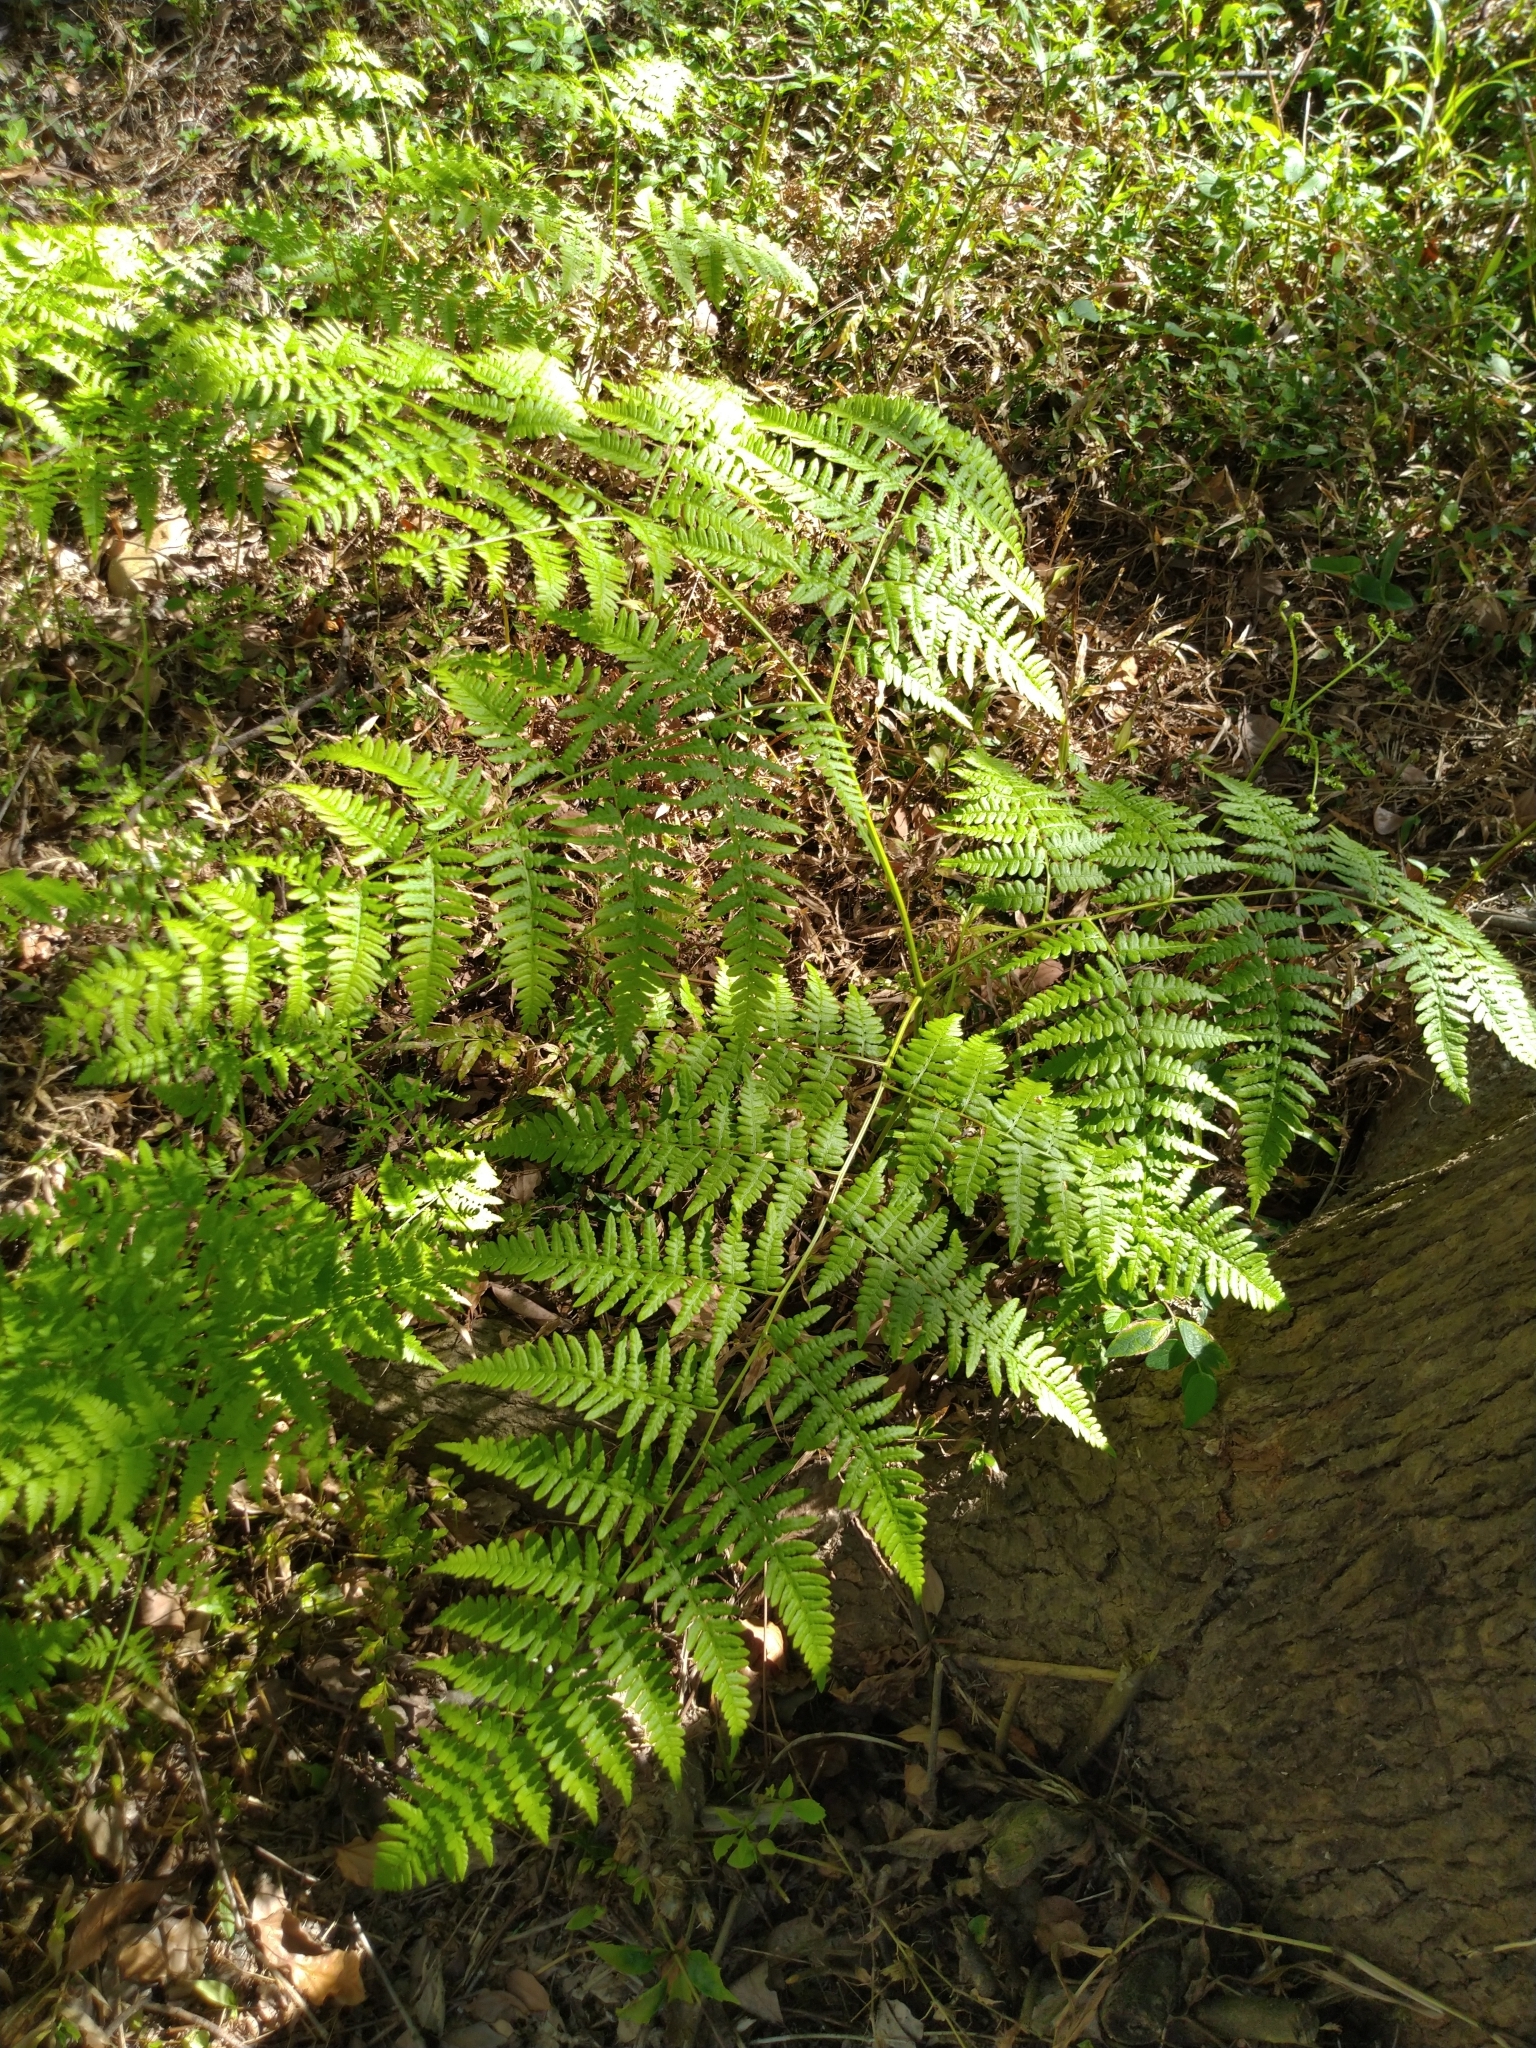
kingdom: Plantae
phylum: Tracheophyta
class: Polypodiopsida
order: Polypodiales
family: Dennstaedtiaceae
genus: Pteridium
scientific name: Pteridium aquilinum
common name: Bracken
